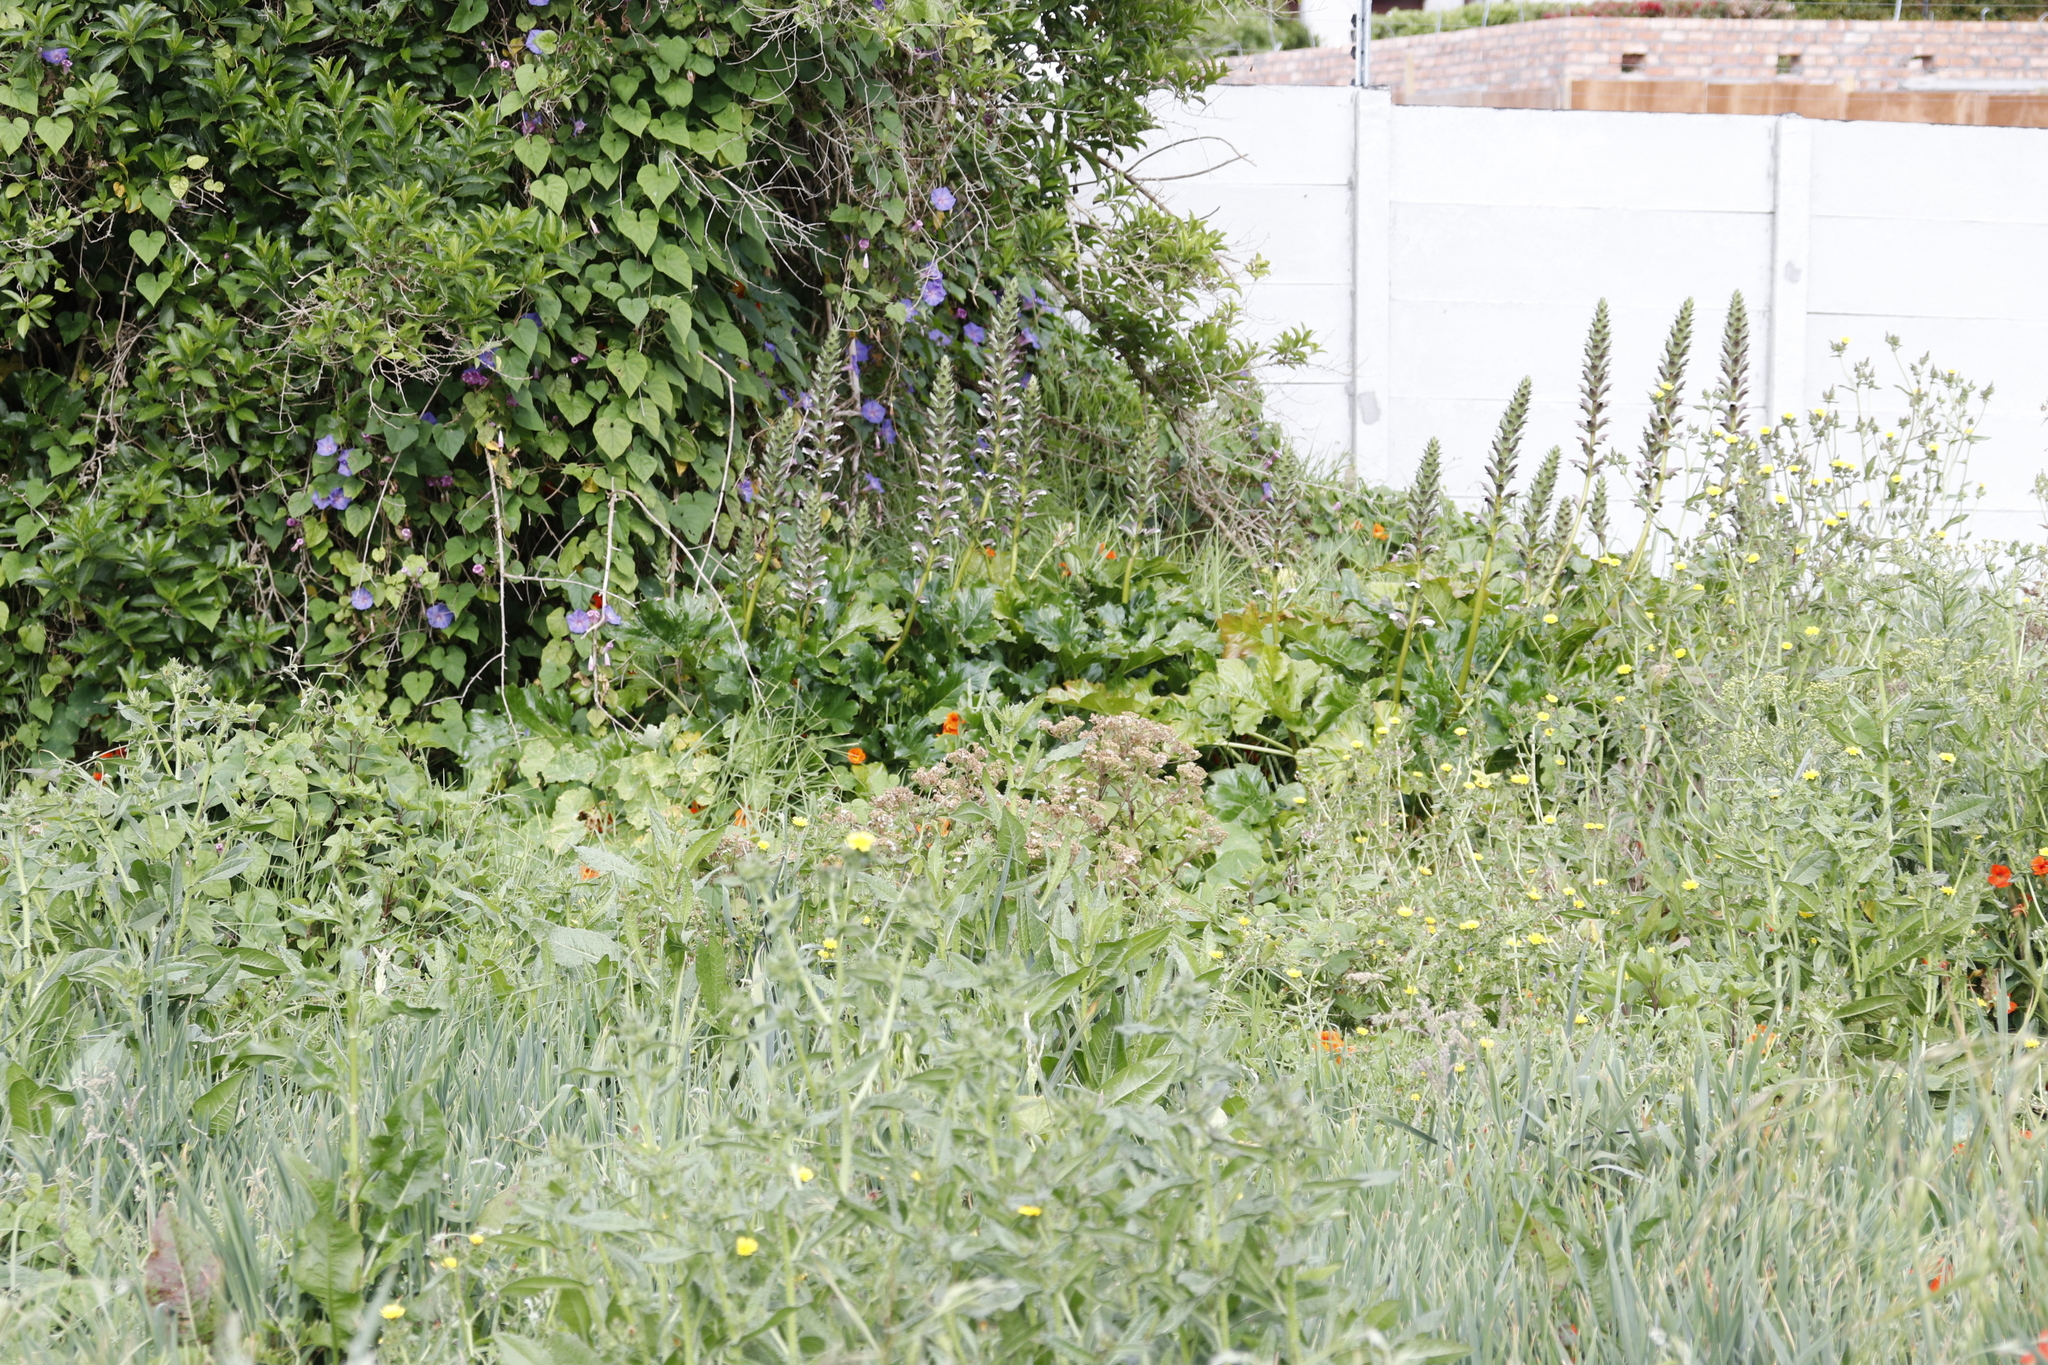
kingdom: Plantae
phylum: Tracheophyta
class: Magnoliopsida
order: Lamiales
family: Acanthaceae
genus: Acanthus
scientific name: Acanthus mollis
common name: Bear's-breech
